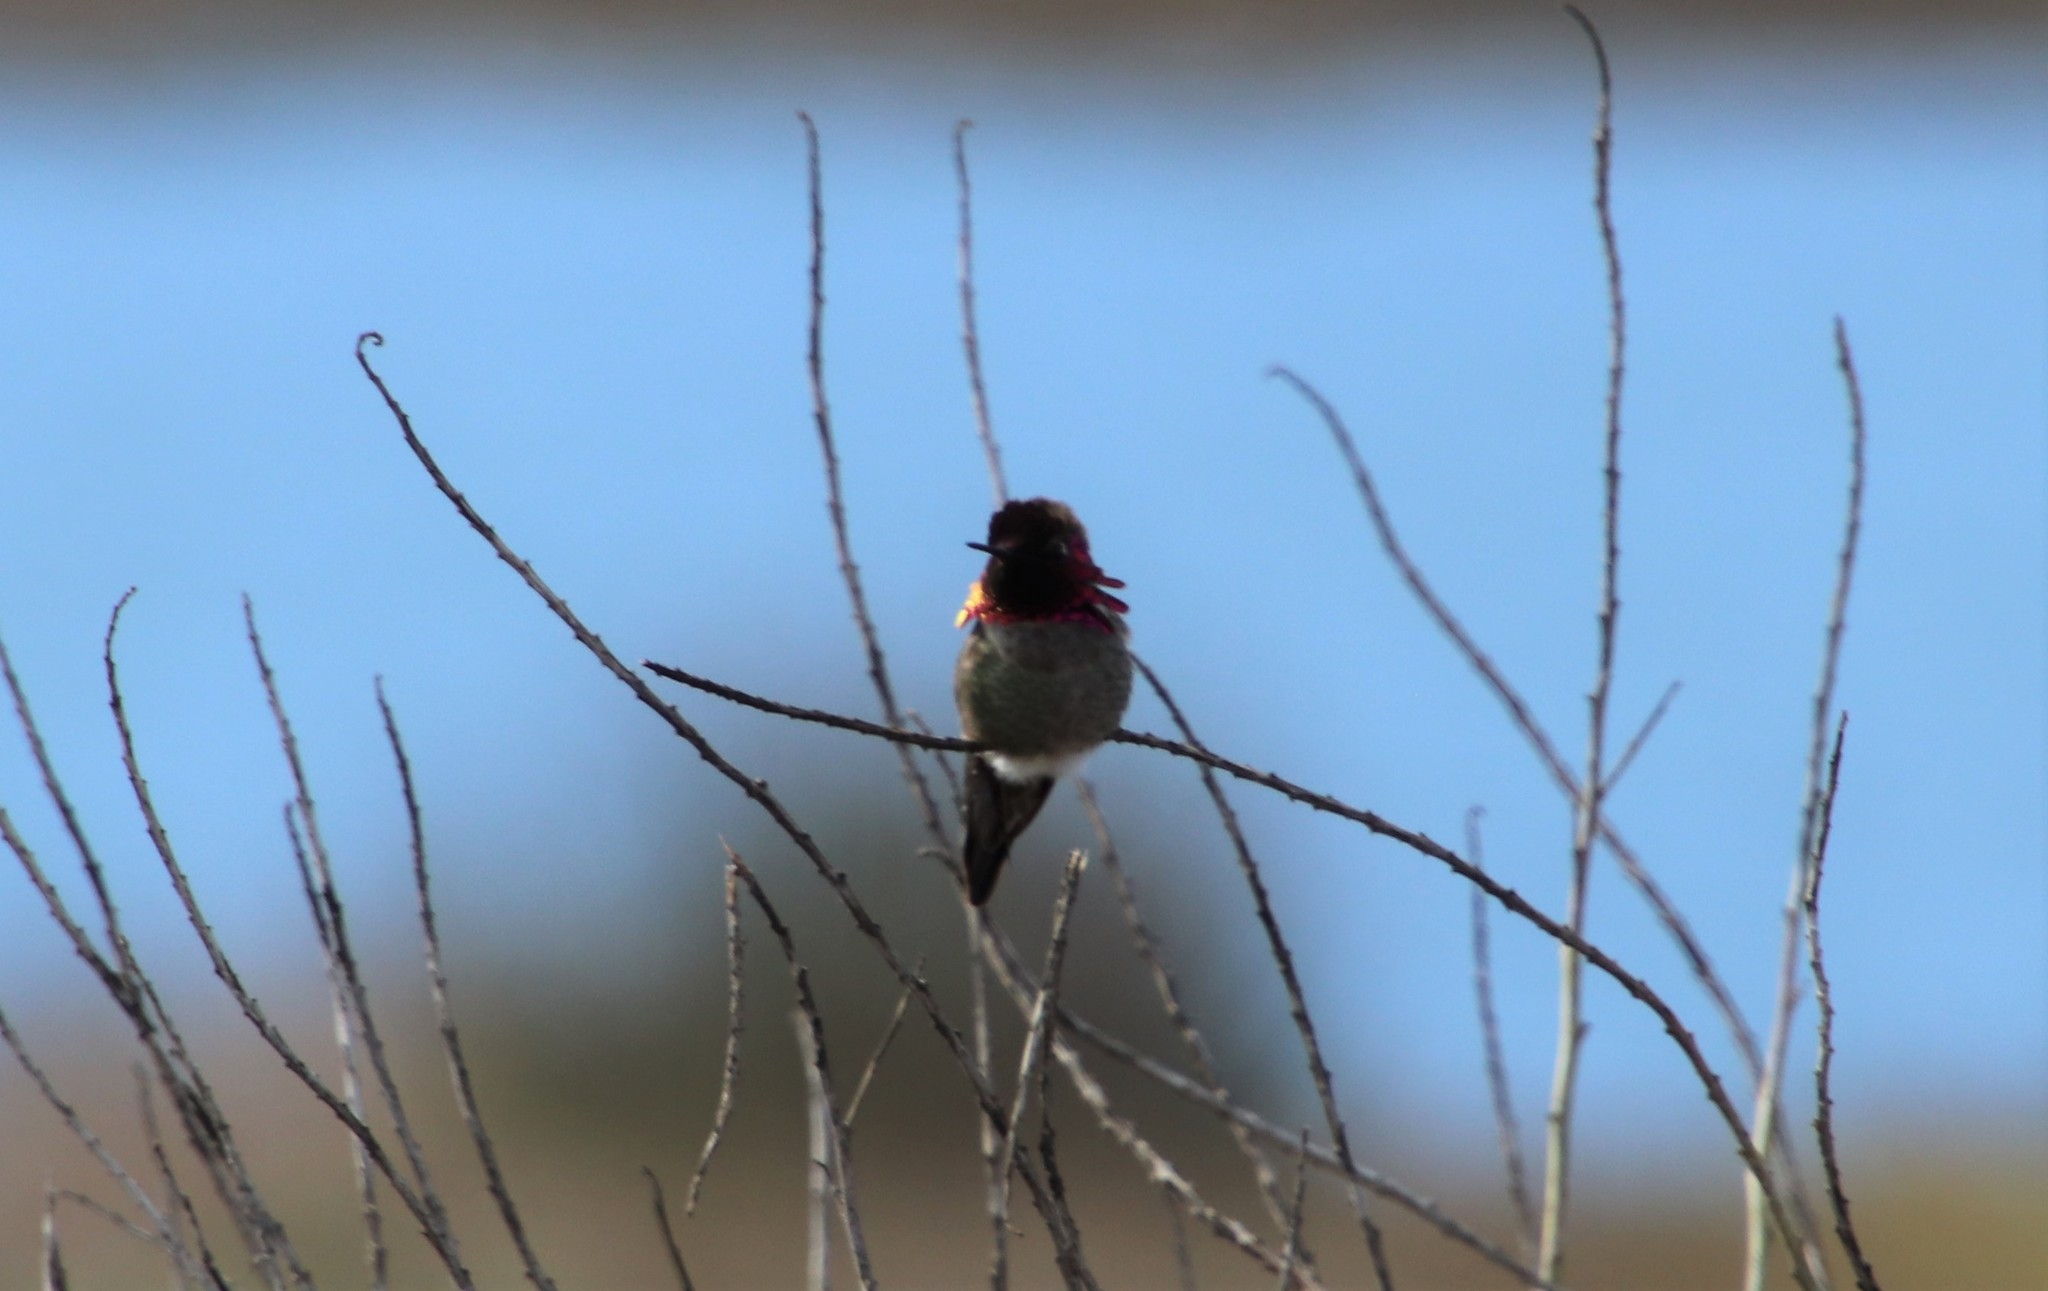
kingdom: Animalia
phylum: Chordata
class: Aves
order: Apodiformes
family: Trochilidae
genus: Calypte
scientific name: Calypte anna
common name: Anna's hummingbird
